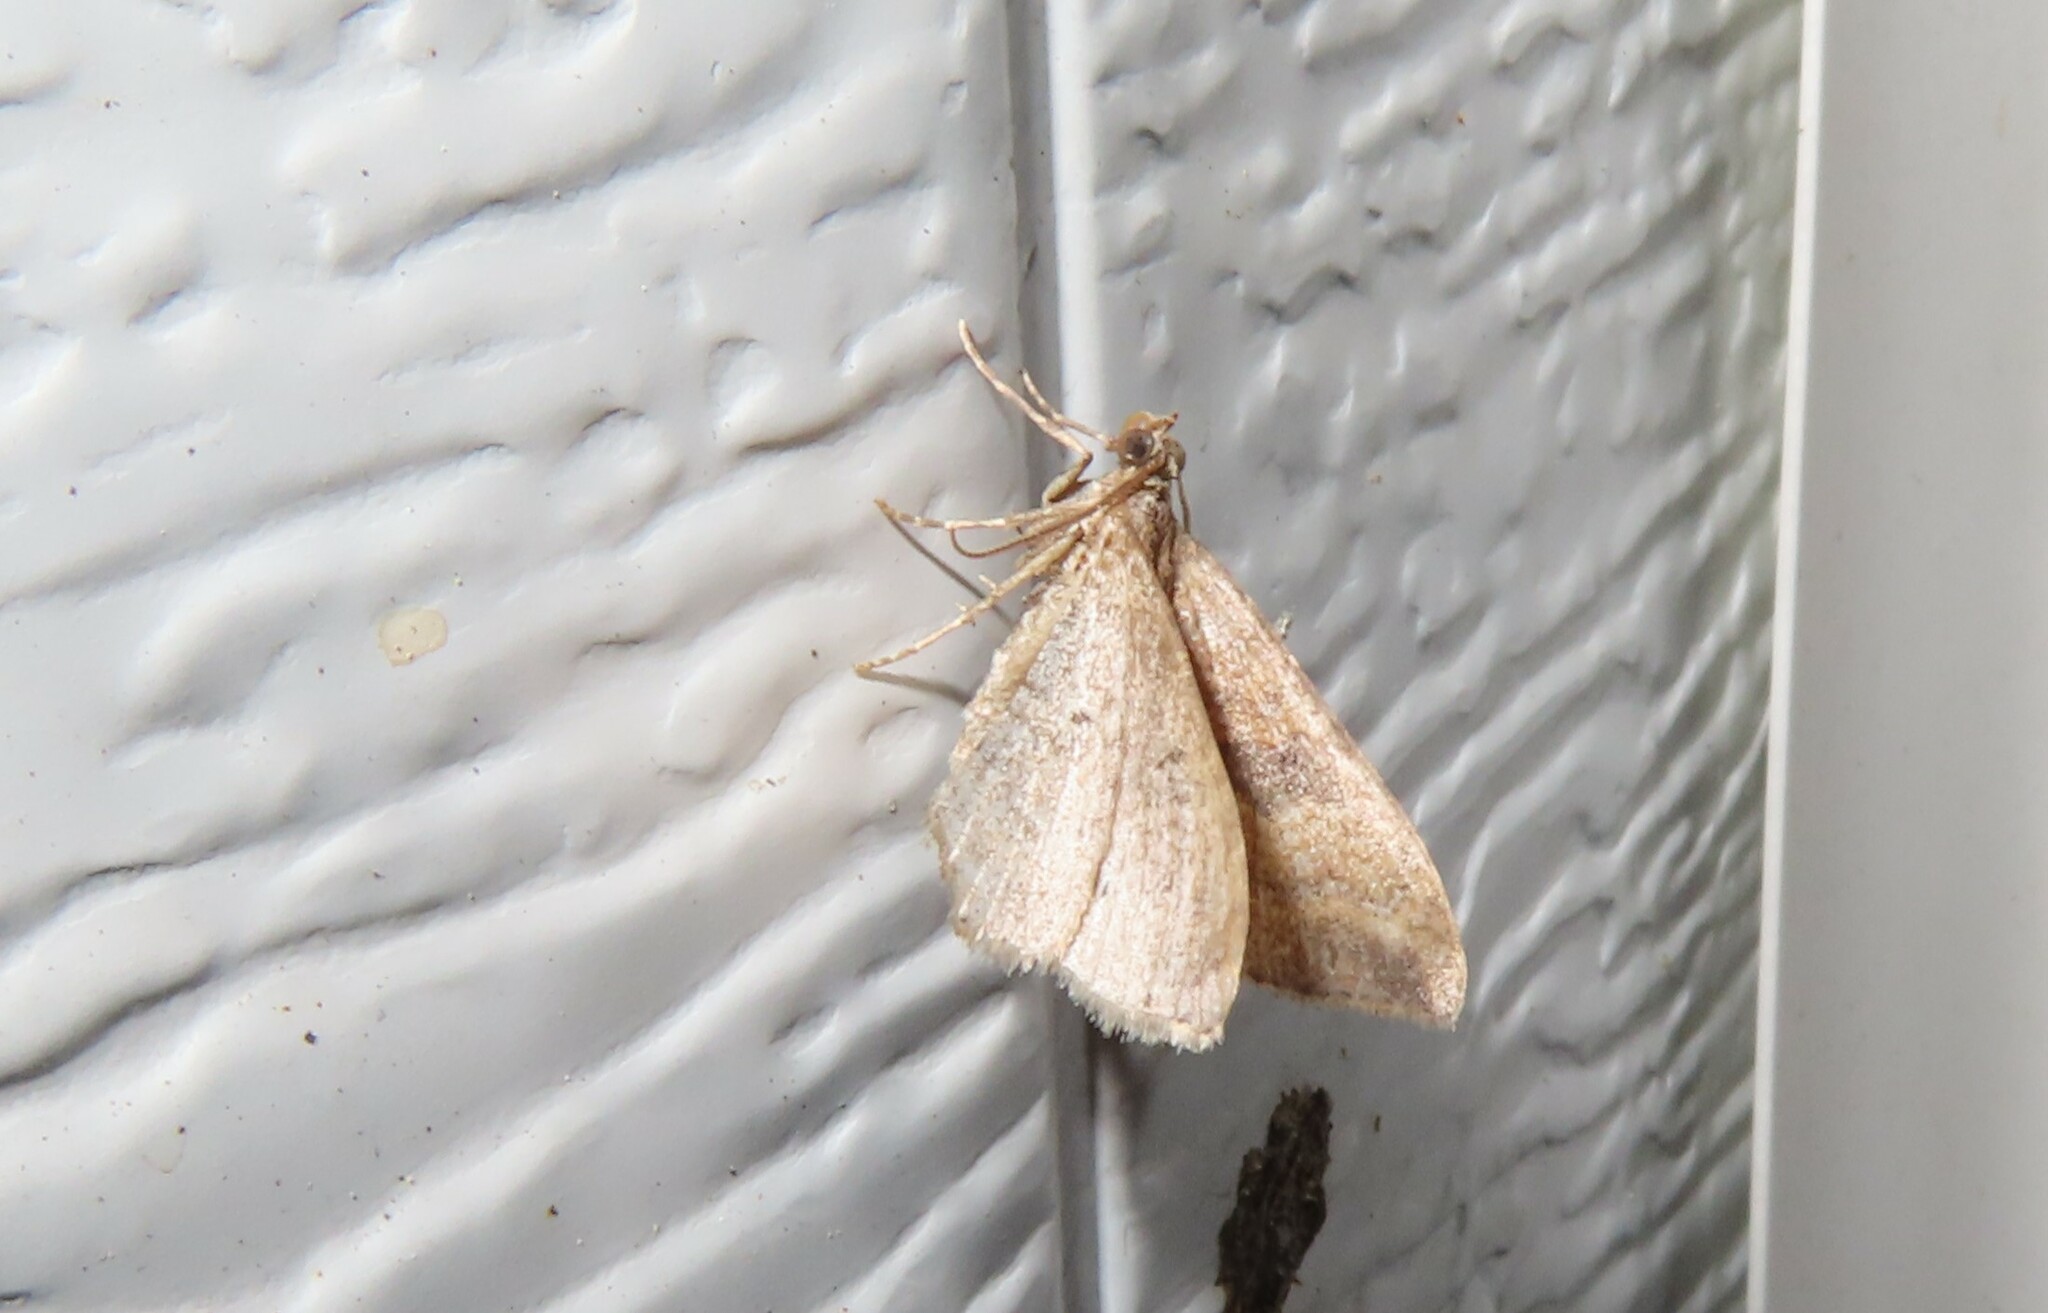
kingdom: Animalia
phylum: Arthropoda
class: Insecta
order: Lepidoptera
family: Geometridae
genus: Orthonama
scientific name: Orthonama obstipata
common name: The gem
